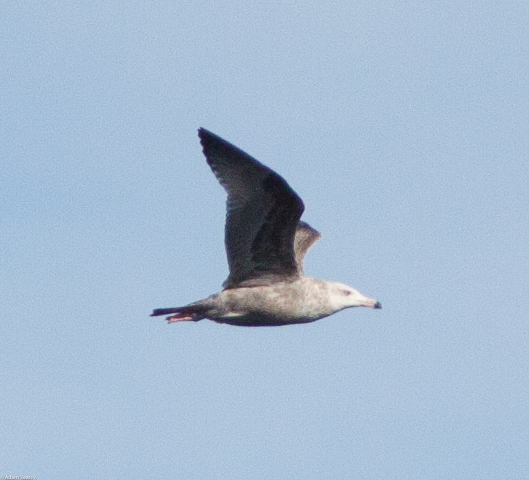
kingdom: Animalia
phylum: Chordata
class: Aves
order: Charadriiformes
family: Laridae
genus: Larus
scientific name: Larus argentatus
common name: Herring gull
